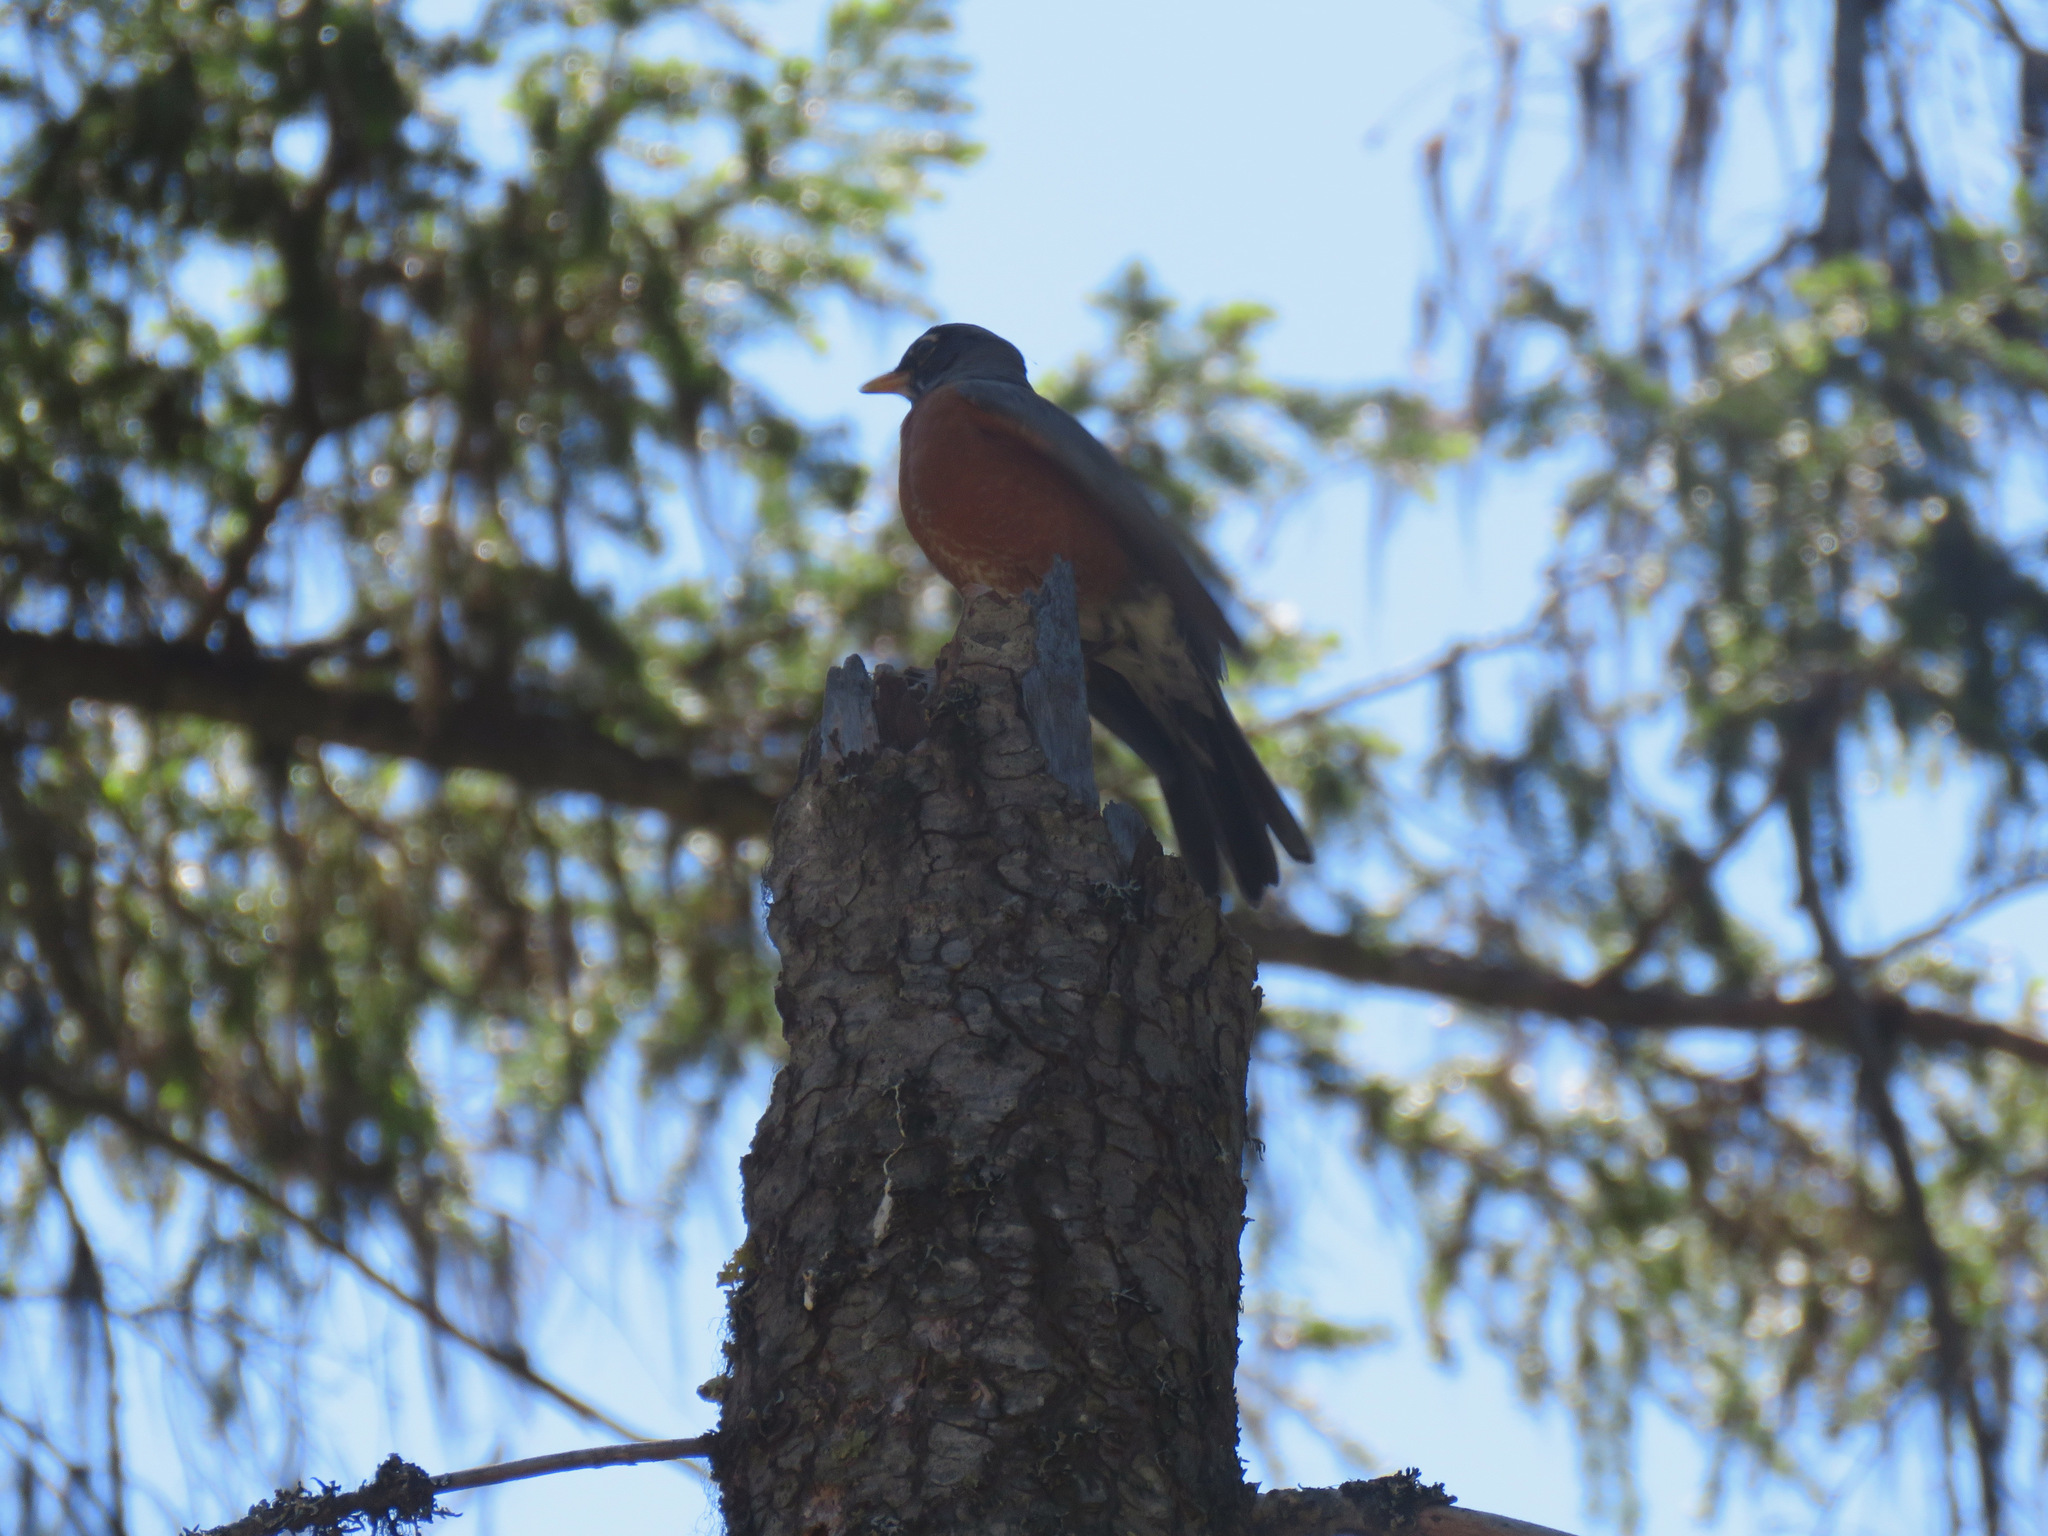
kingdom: Animalia
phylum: Chordata
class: Aves
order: Passeriformes
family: Turdidae
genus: Turdus
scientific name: Turdus migratorius
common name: American robin
